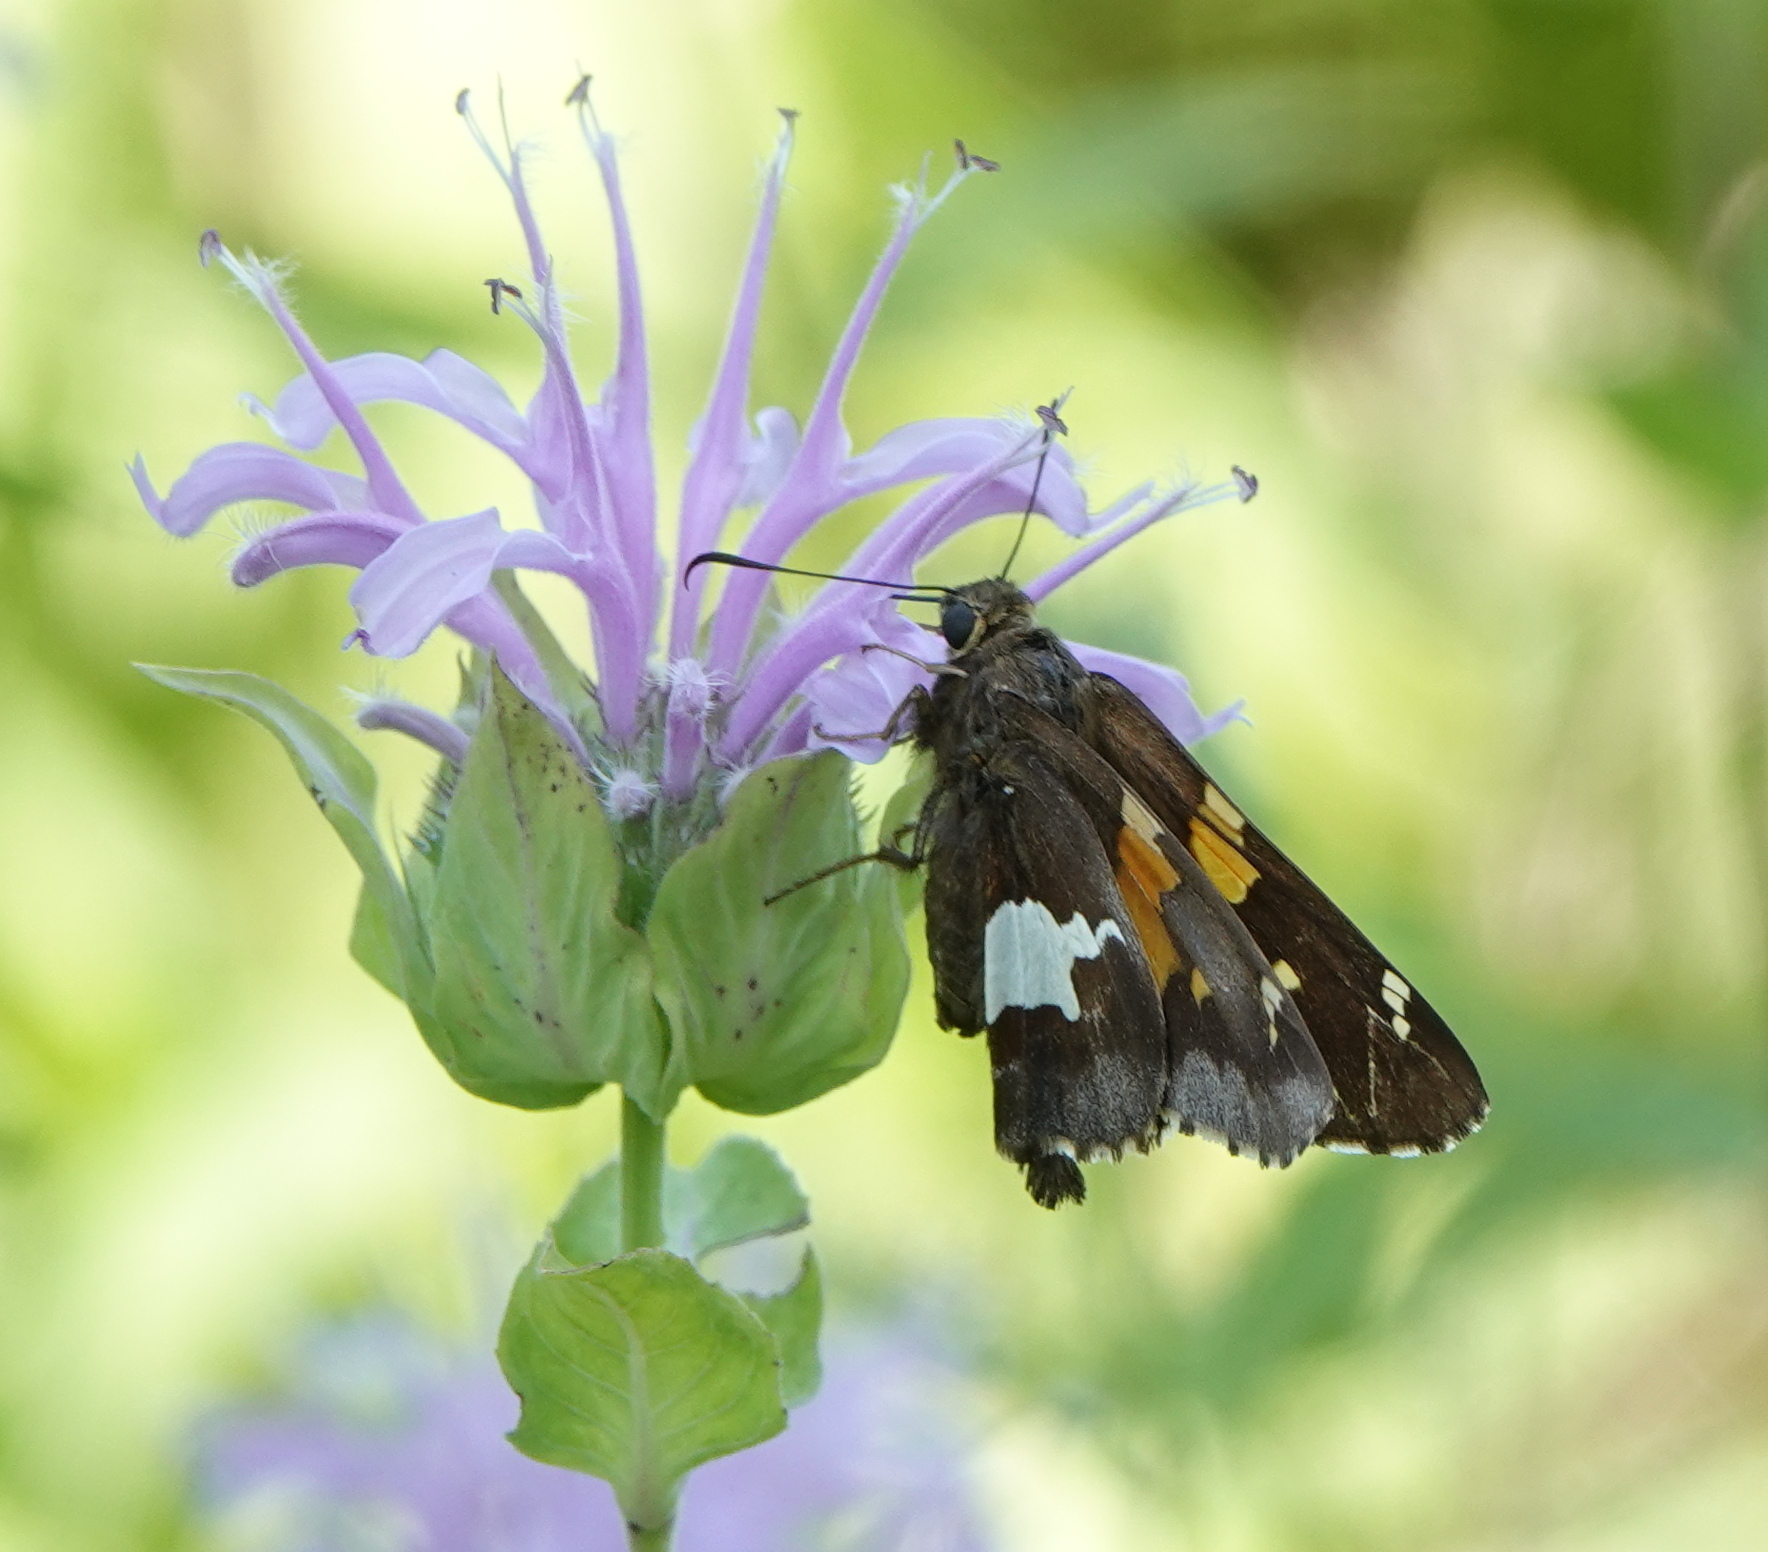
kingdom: Animalia
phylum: Arthropoda
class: Insecta
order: Lepidoptera
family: Hesperiidae
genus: Epargyreus
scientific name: Epargyreus clarus
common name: Silver-spotted skipper
